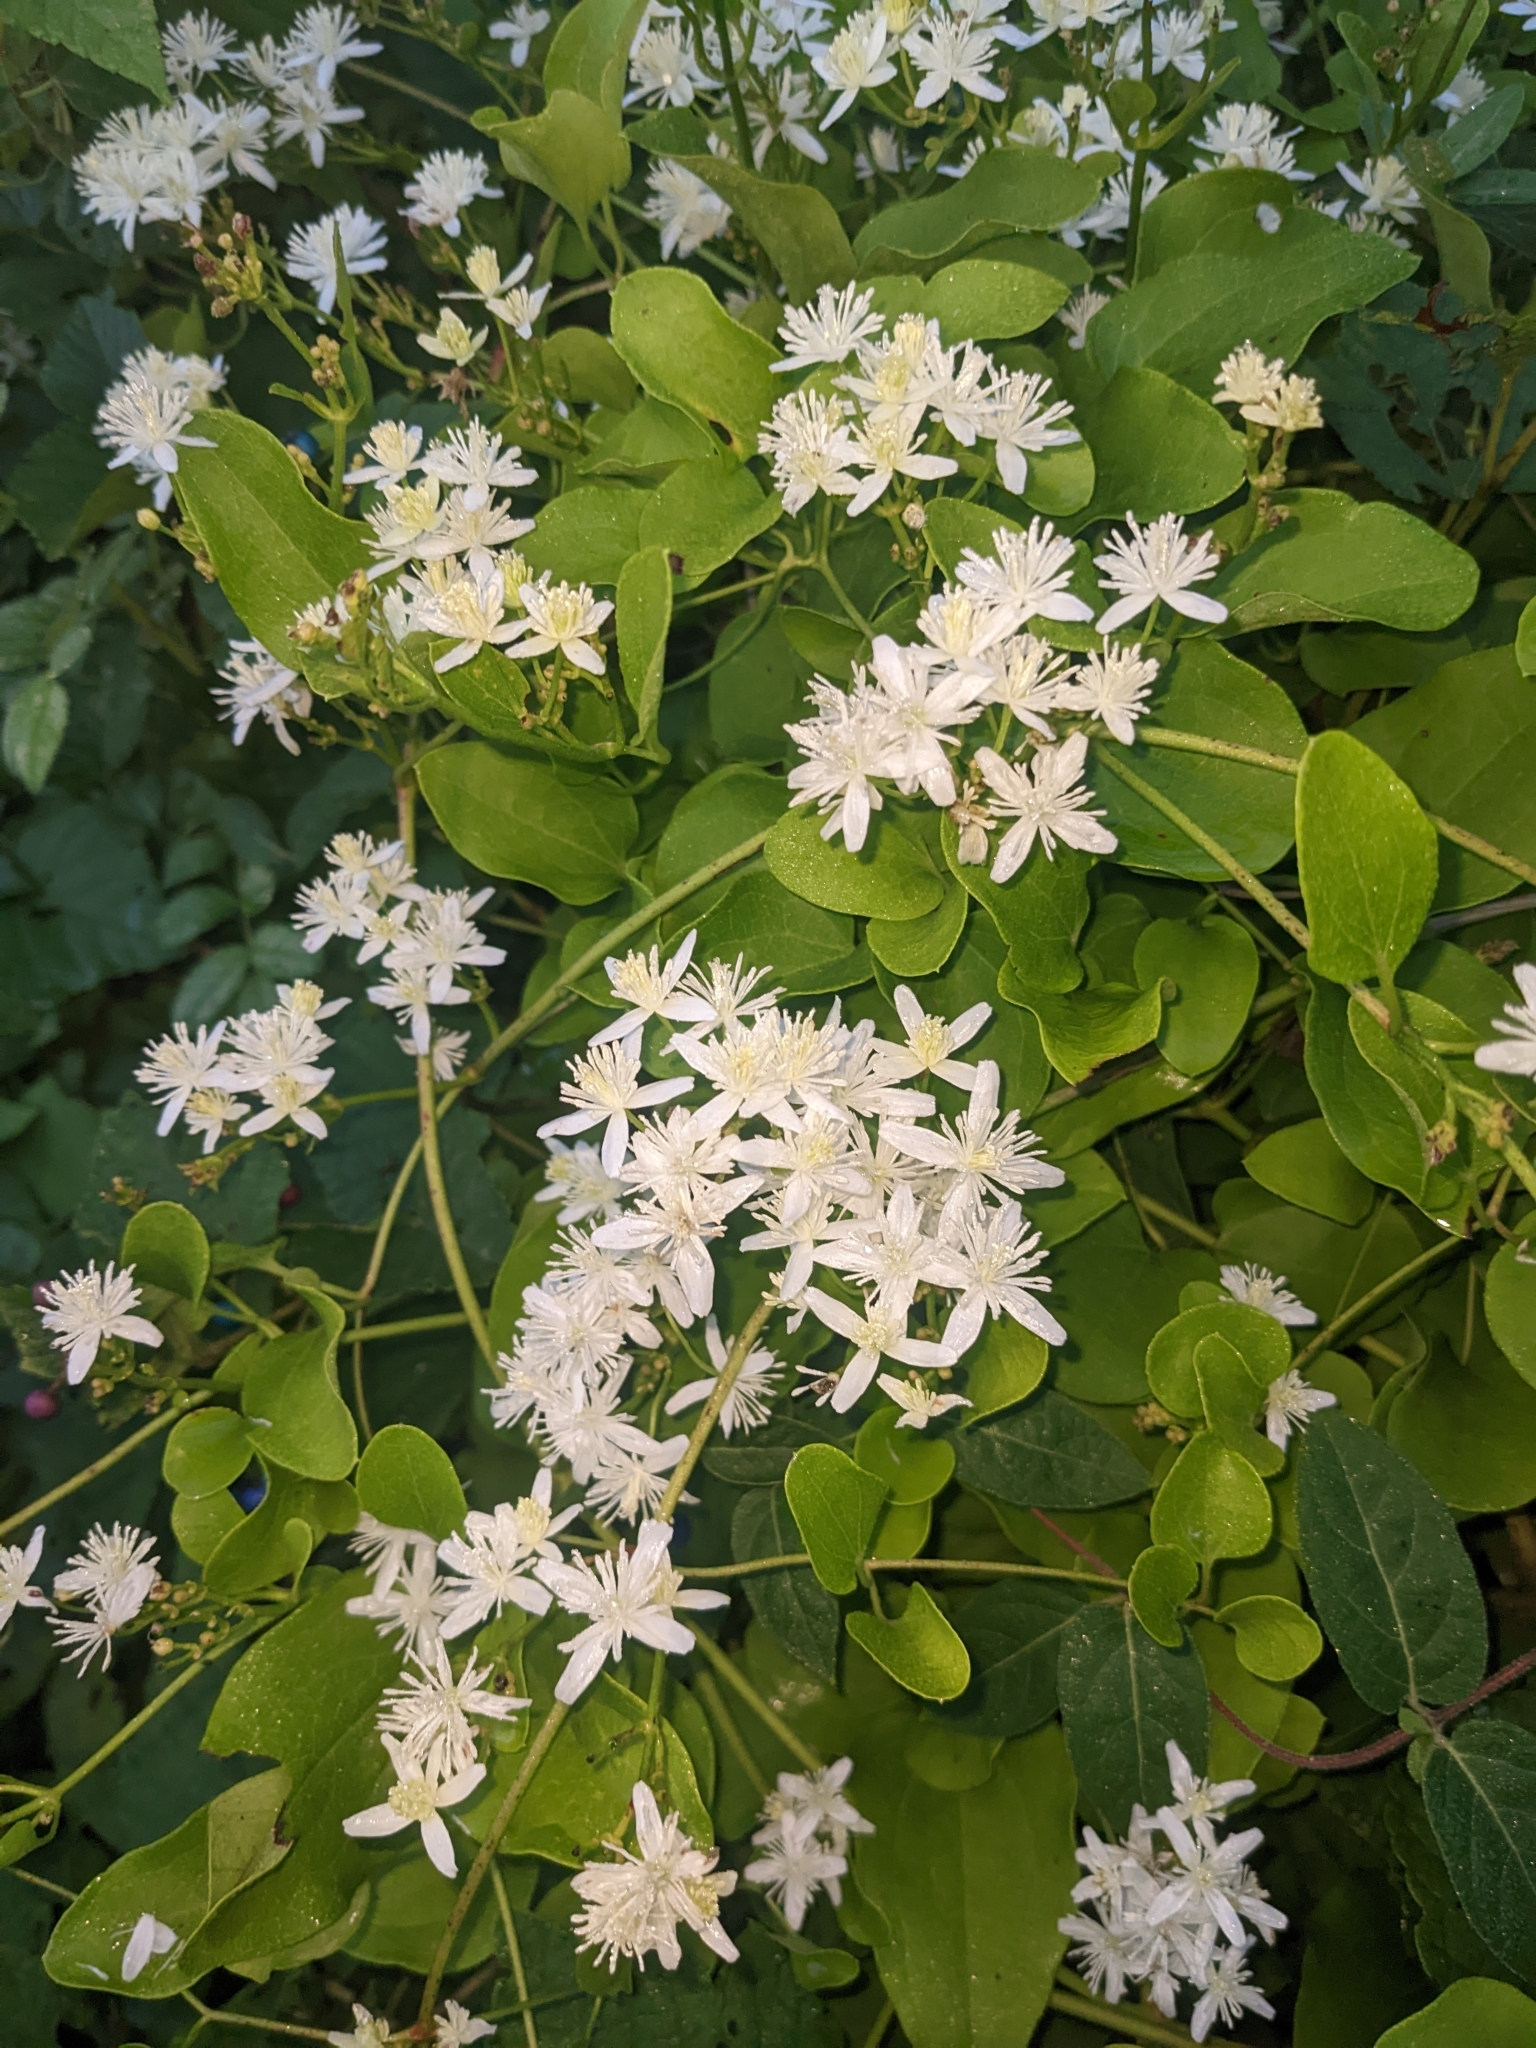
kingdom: Plantae
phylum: Tracheophyta
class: Magnoliopsida
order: Ranunculales
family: Ranunculaceae
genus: Clematis
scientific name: Clematis terniflora
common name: Sweet autumn clematis
